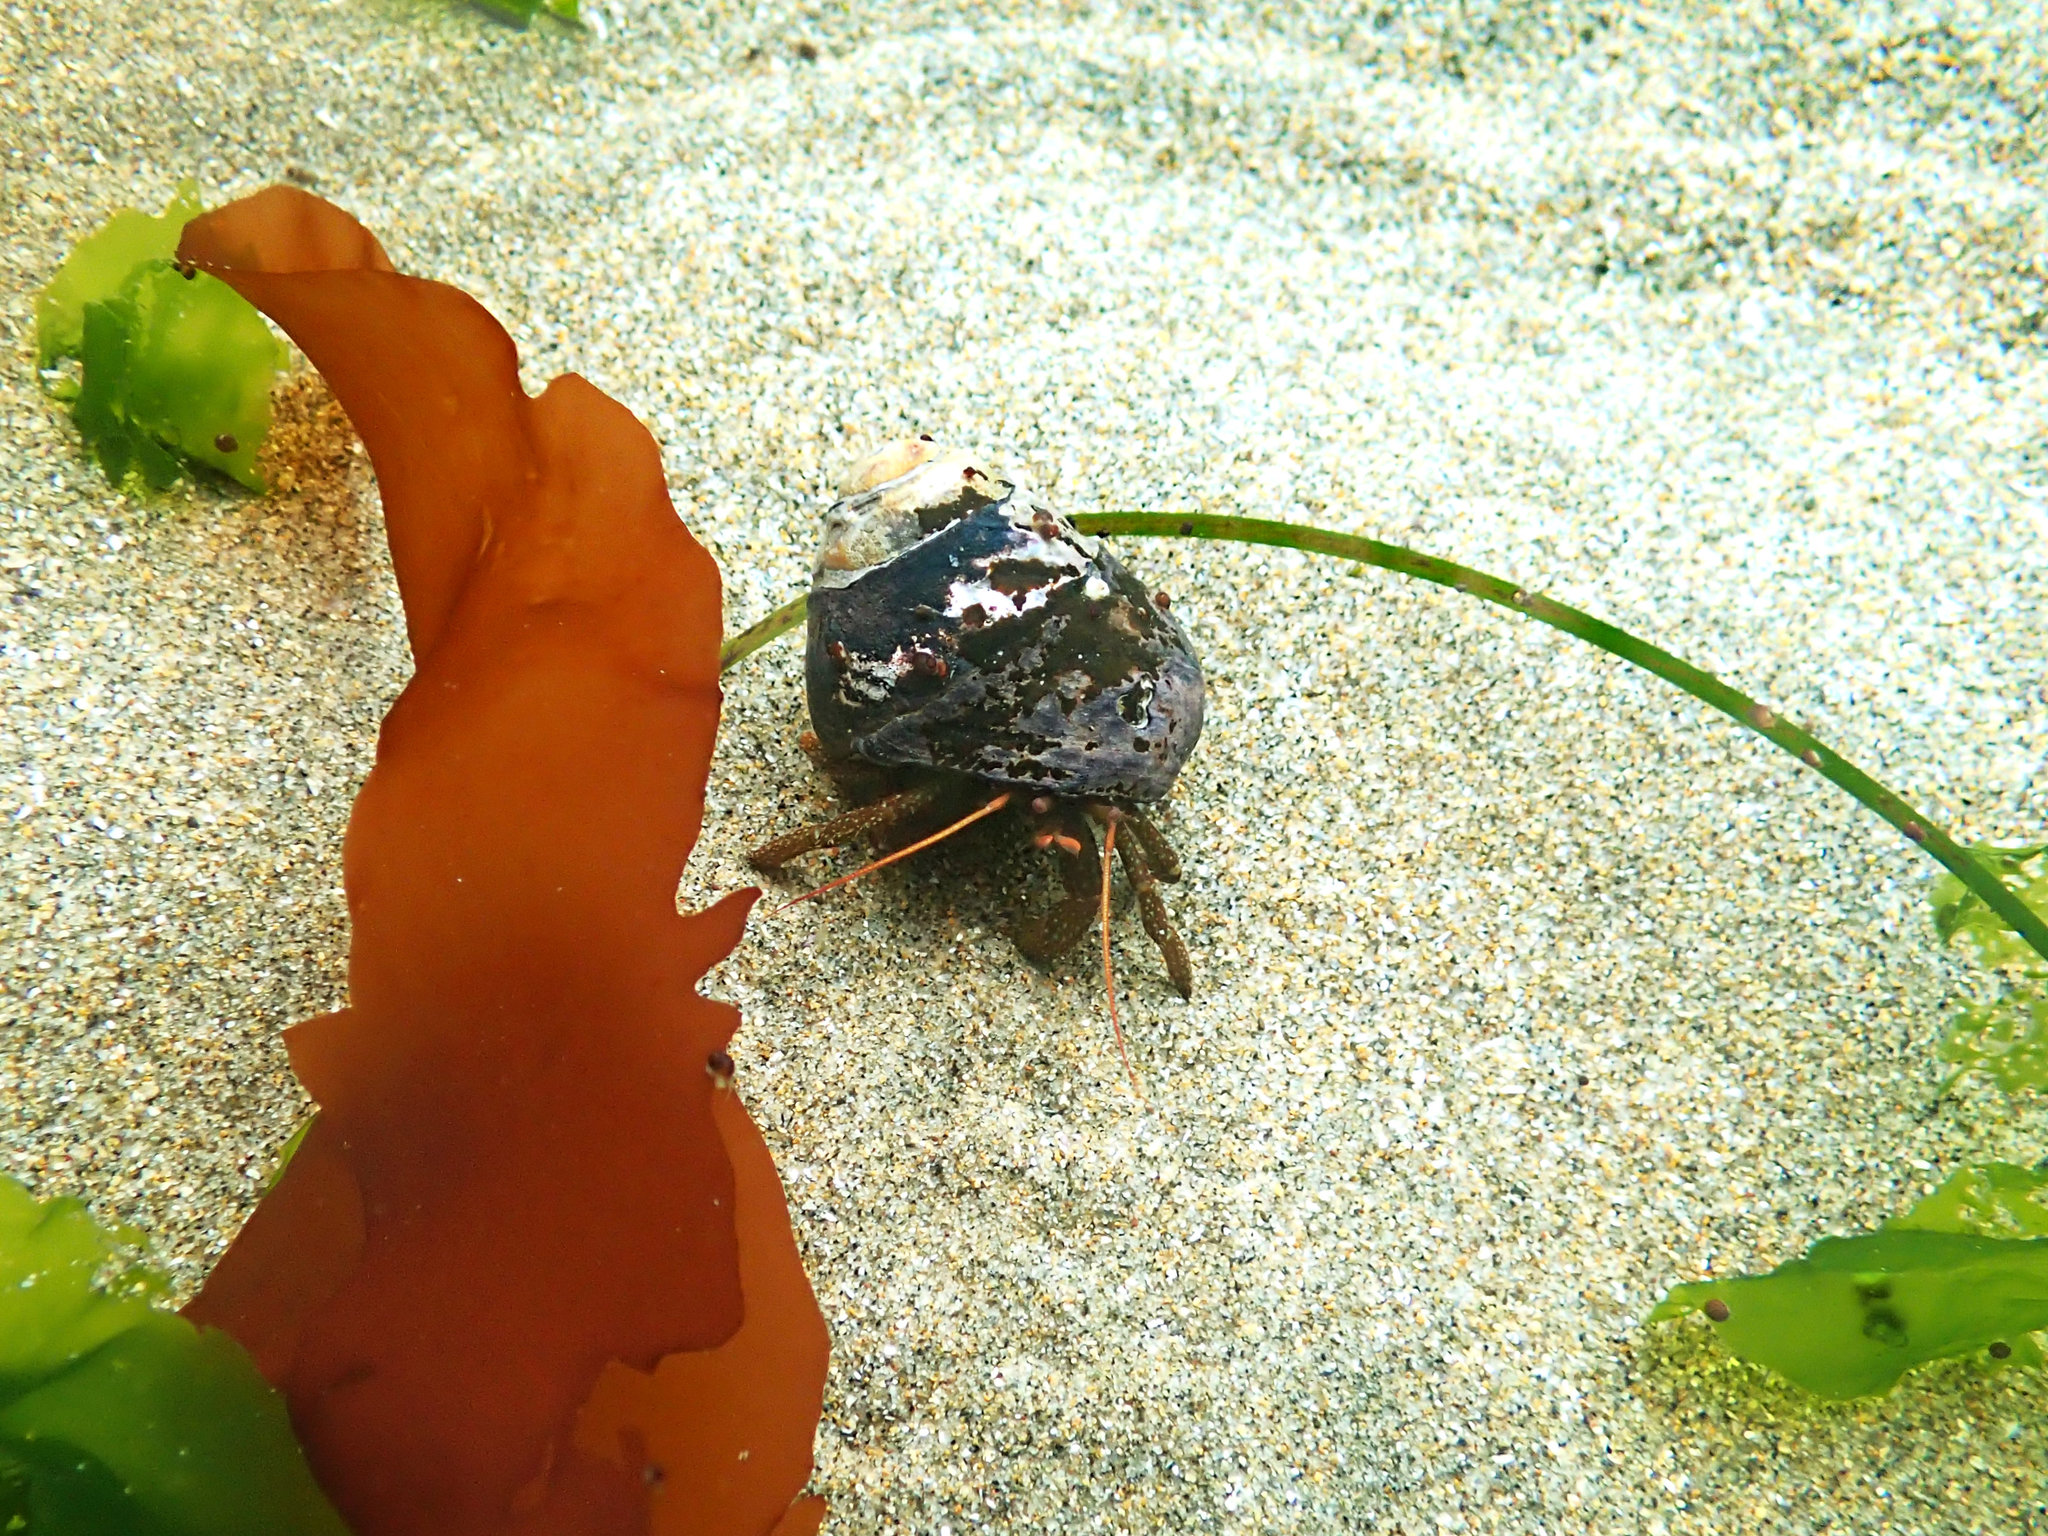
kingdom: Animalia
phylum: Arthropoda
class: Malacostraca
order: Decapoda
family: Paguridae
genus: Pagurus
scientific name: Pagurus granosimanus
